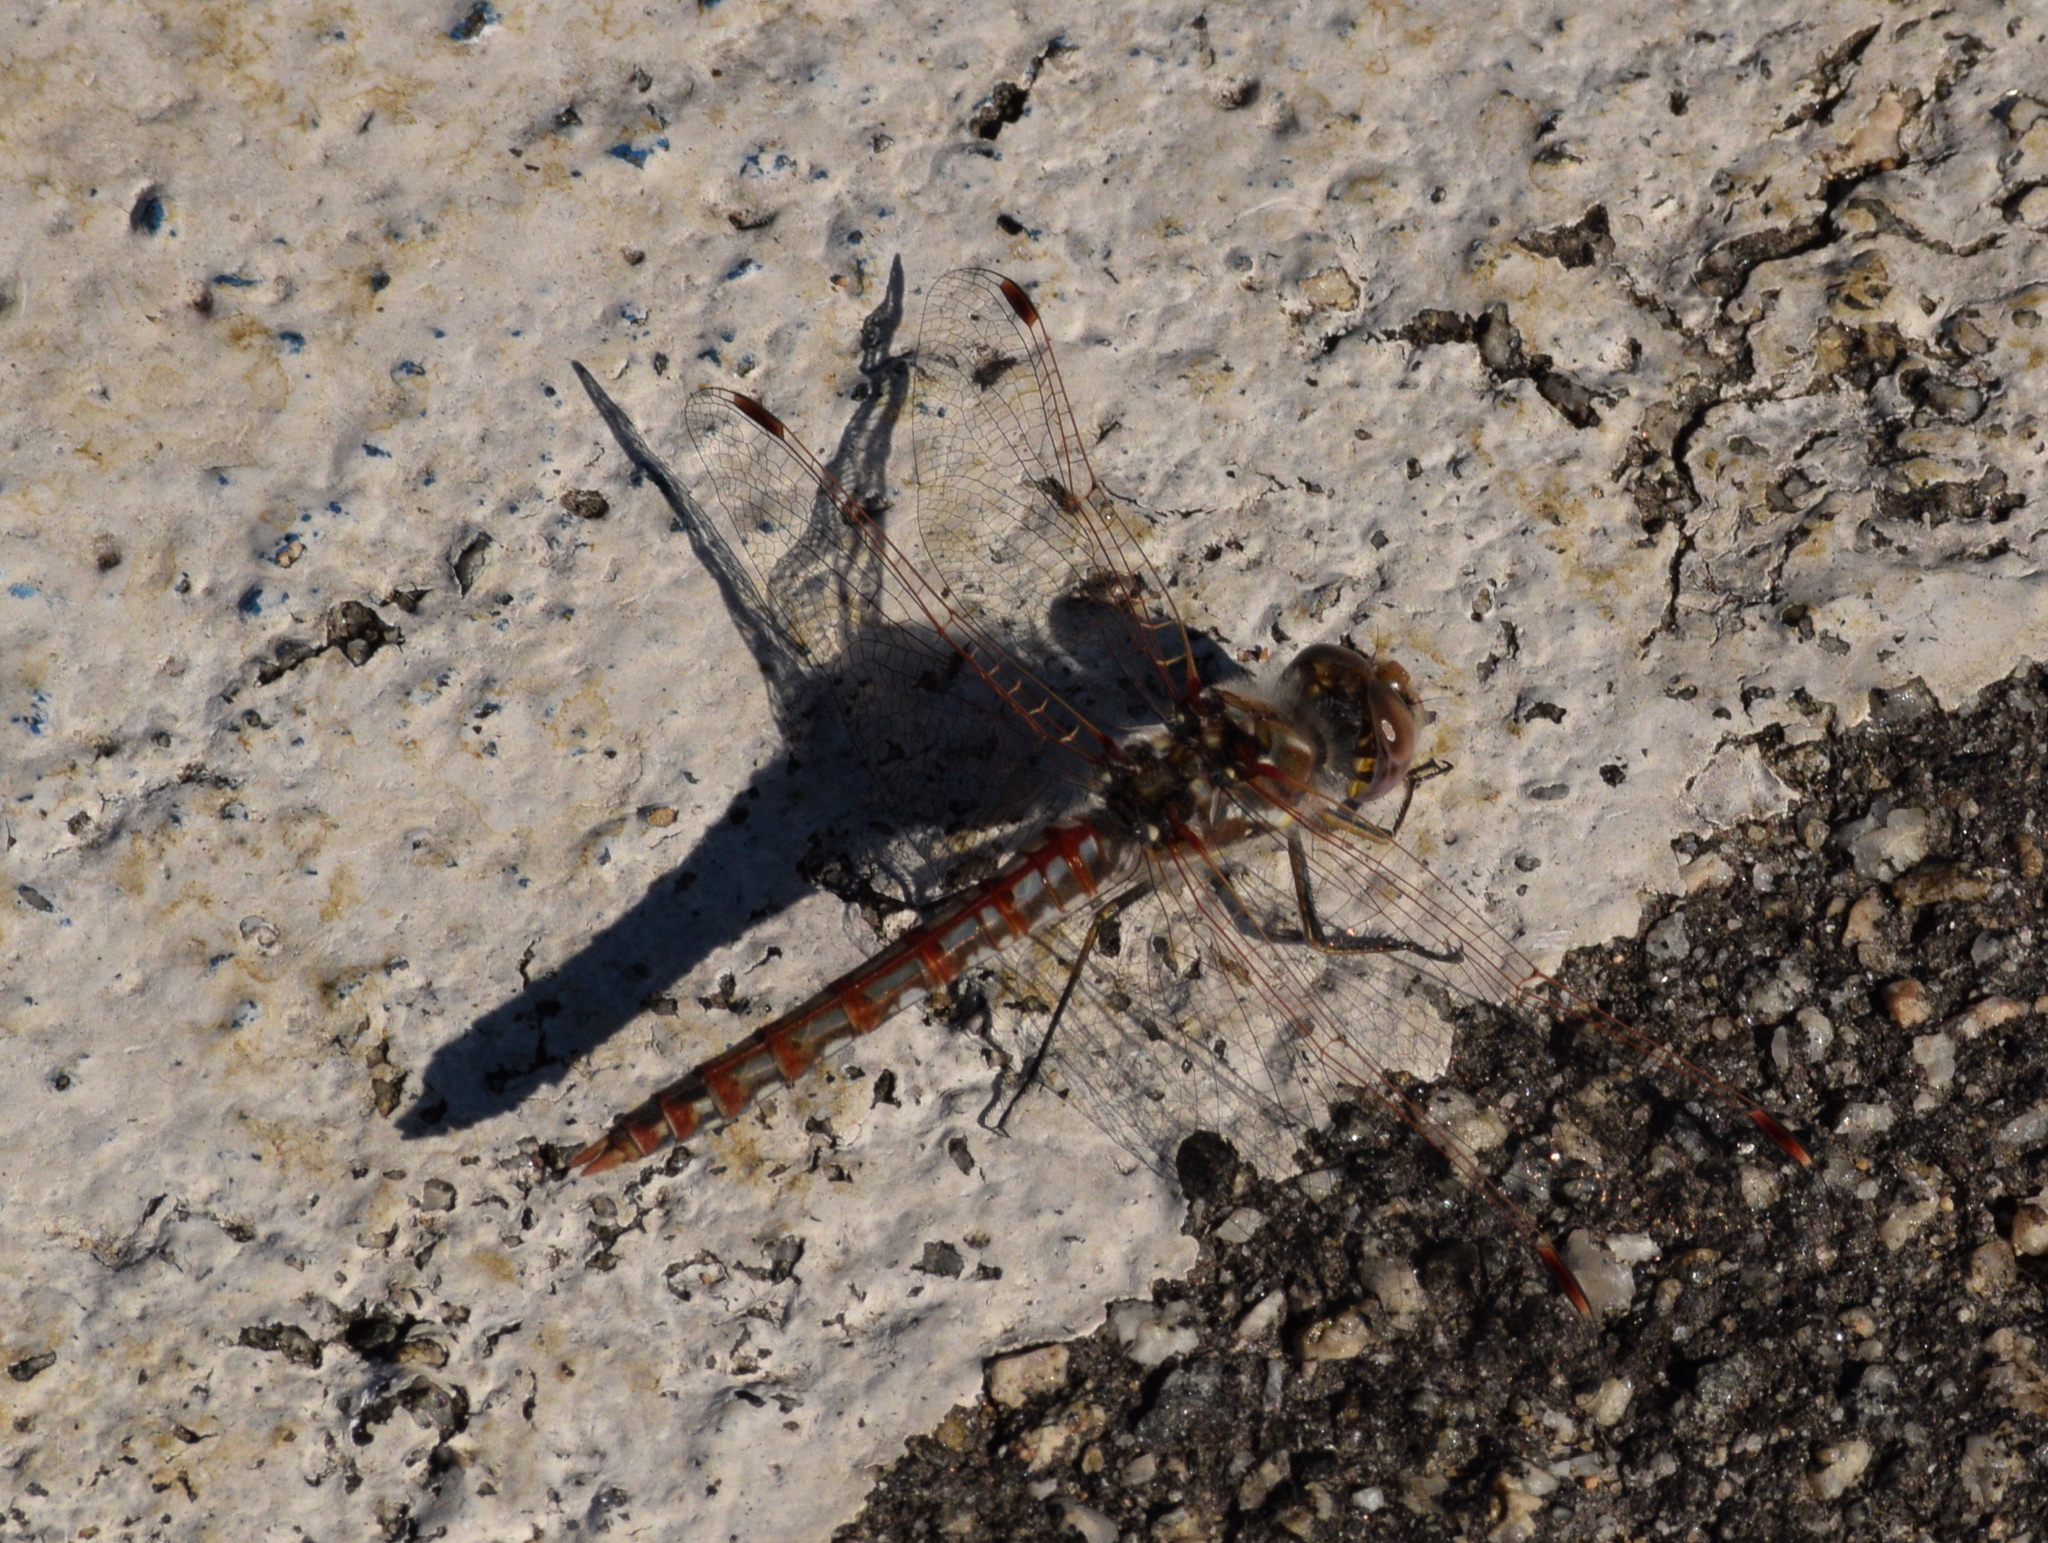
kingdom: Animalia
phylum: Arthropoda
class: Insecta
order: Odonata
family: Libellulidae
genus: Sympetrum
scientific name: Sympetrum corruptum
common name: Variegated meadowhawk
